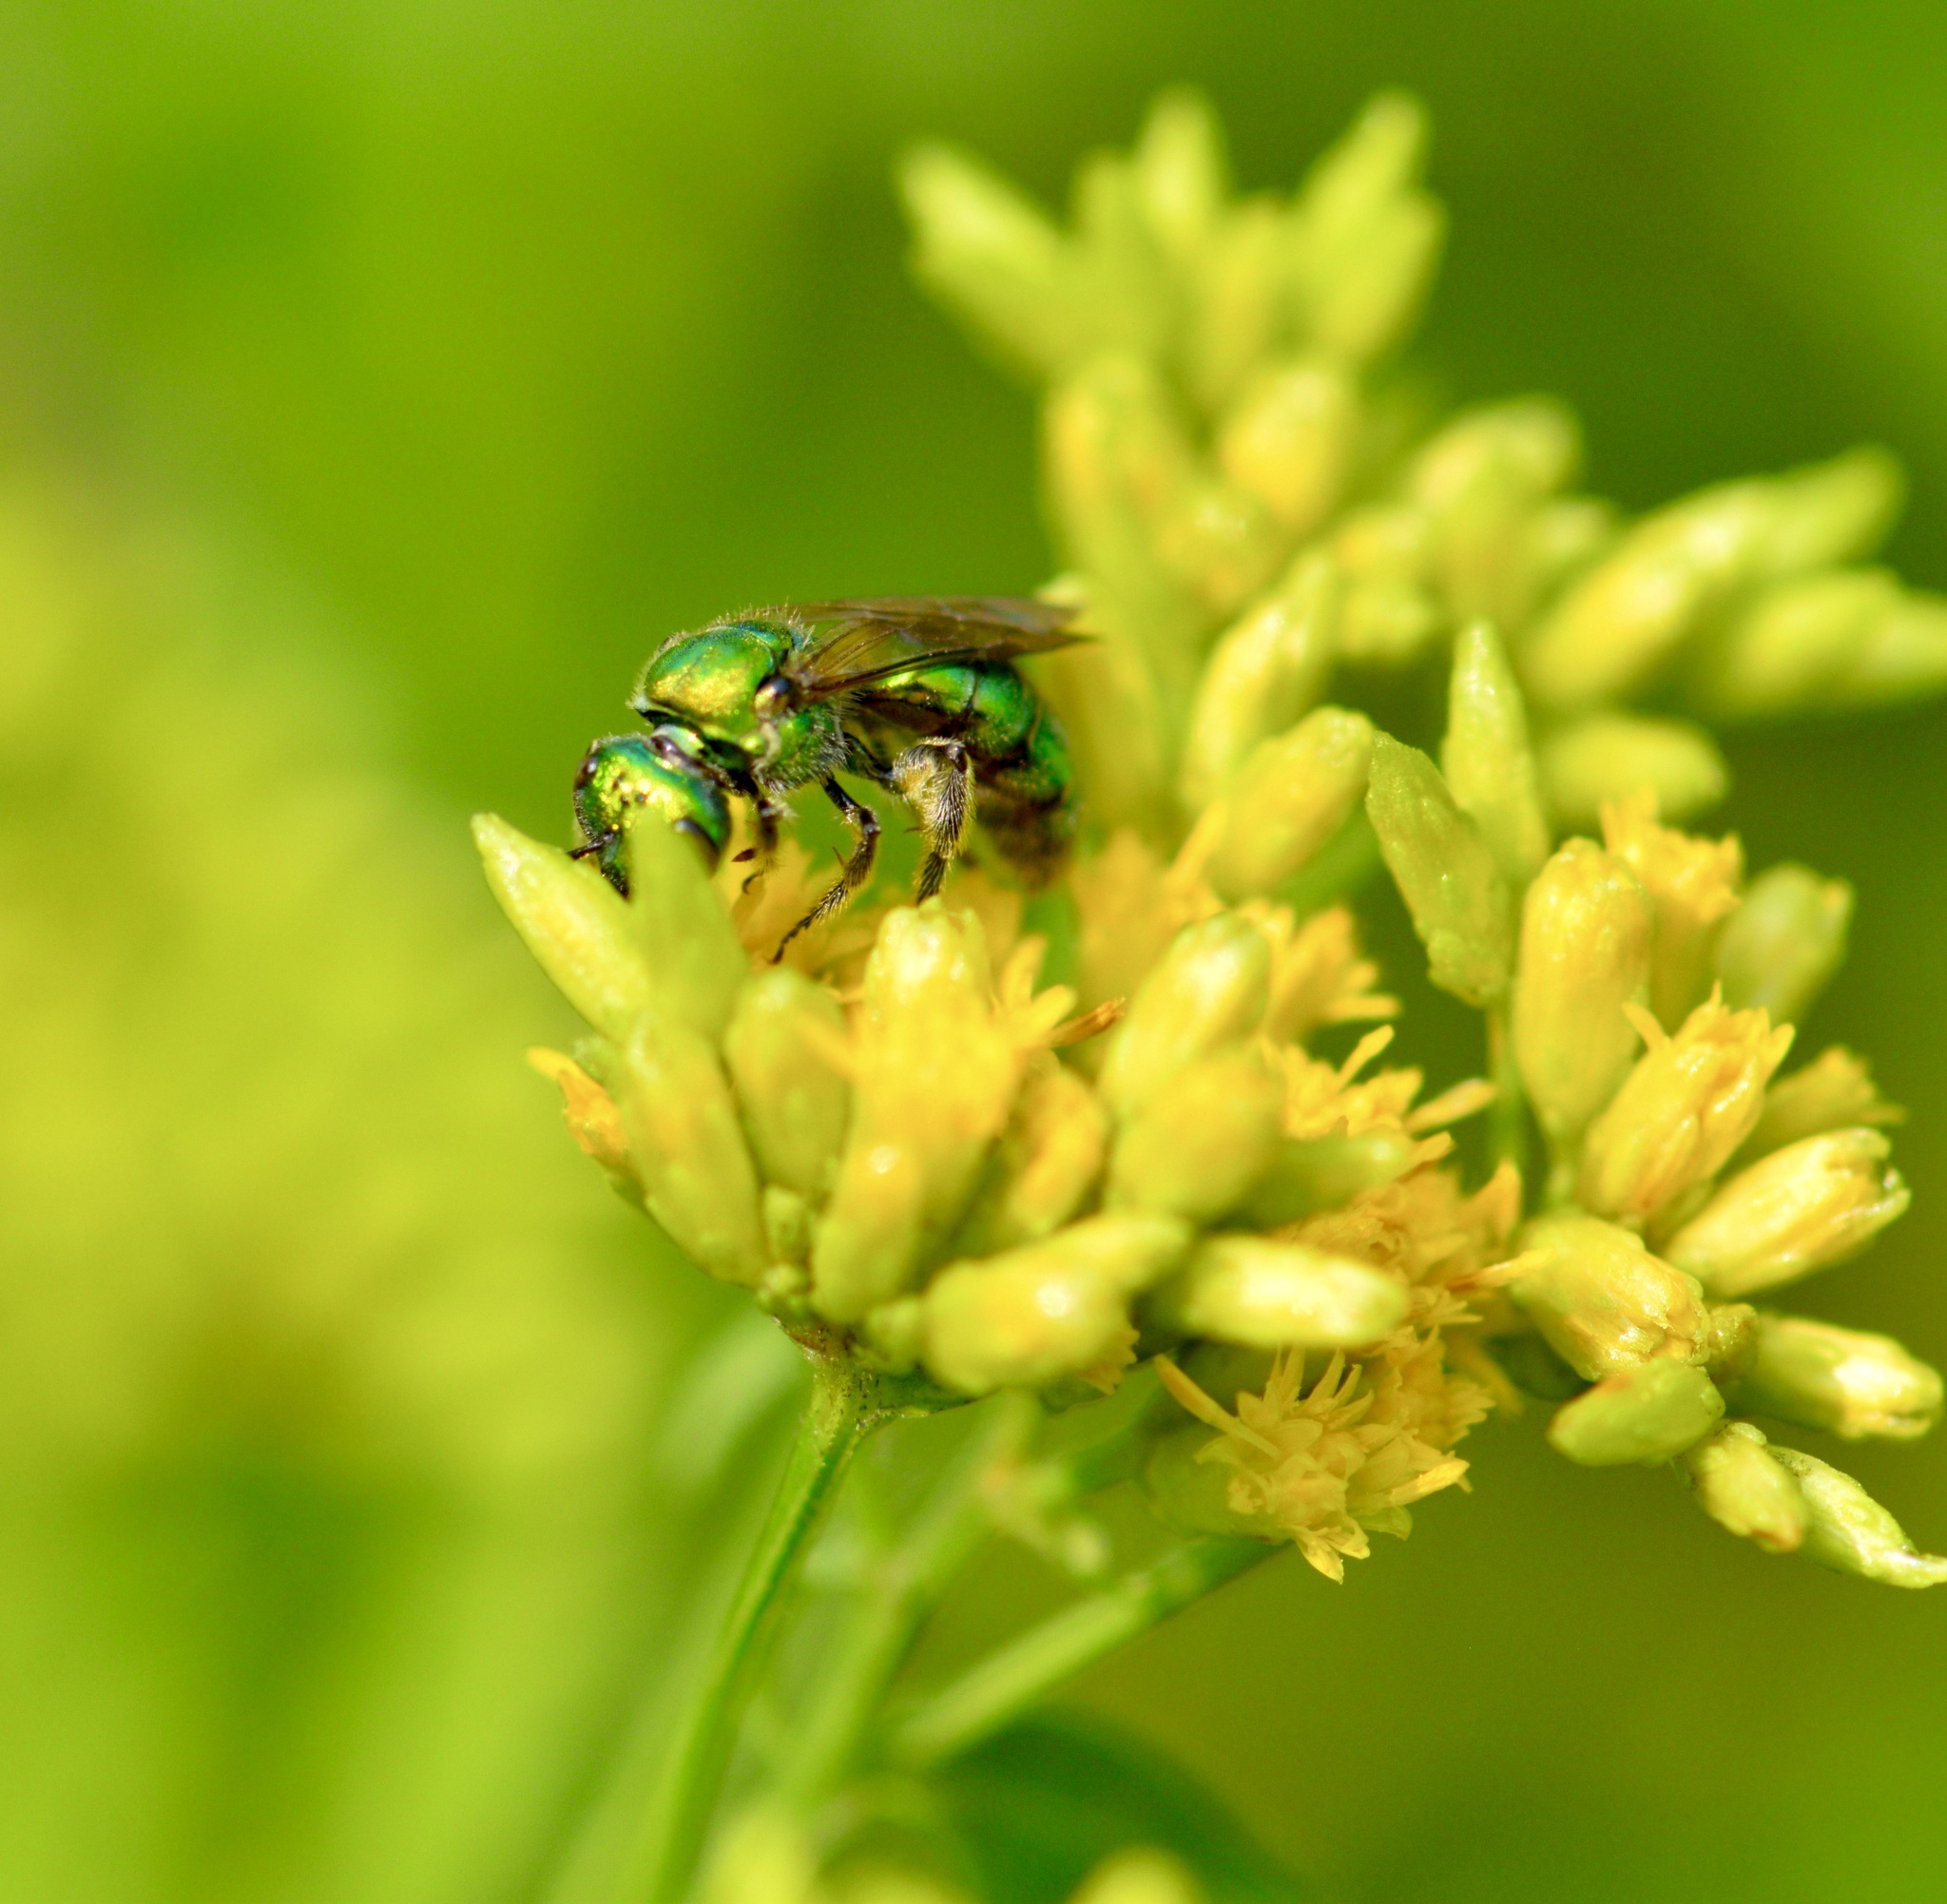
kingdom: Animalia
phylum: Arthropoda
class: Insecta
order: Hymenoptera
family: Halictidae
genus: Augochlora
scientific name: Augochlora pura
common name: Pure green sweat bee
